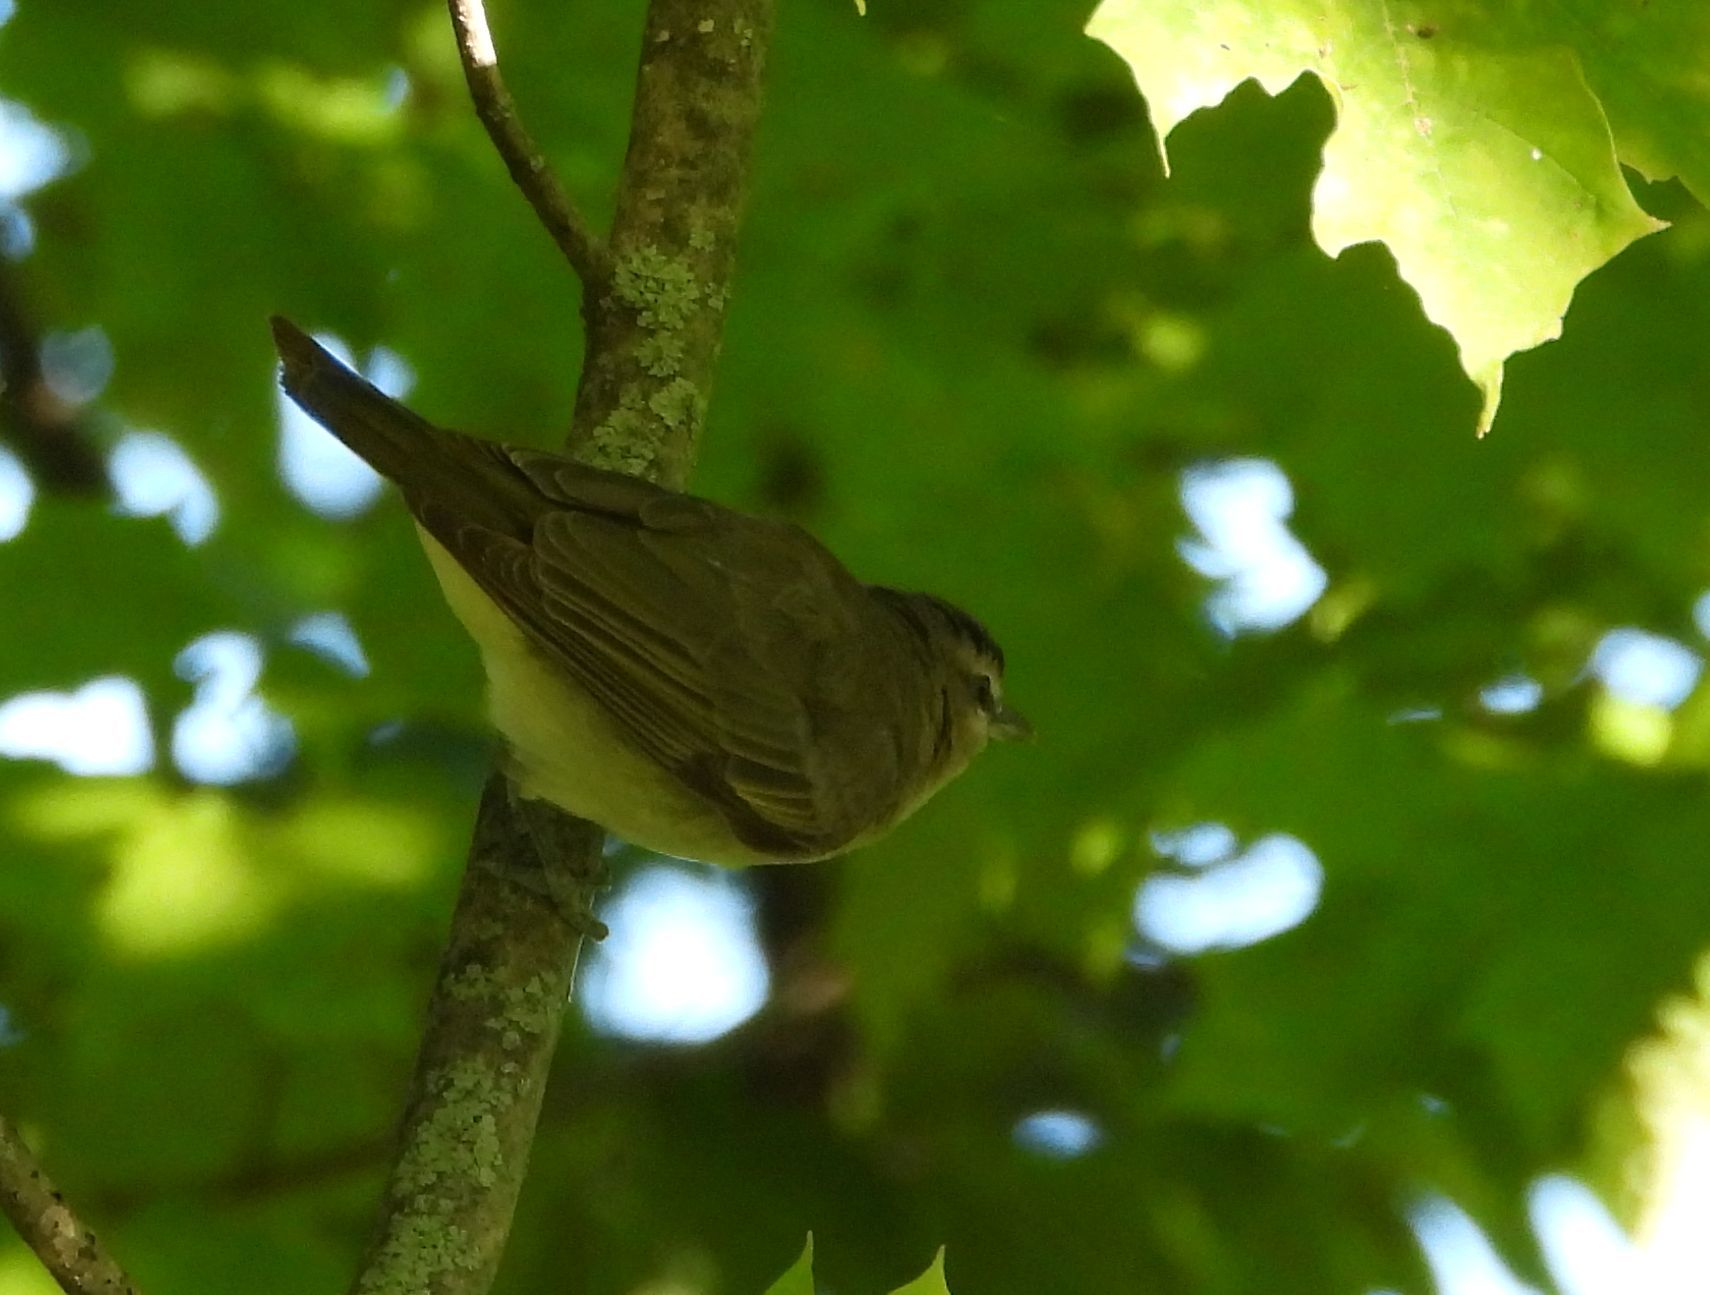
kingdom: Animalia
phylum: Chordata
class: Aves
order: Passeriformes
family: Vireonidae
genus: Vireo
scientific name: Vireo olivaceus
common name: Red-eyed vireo
